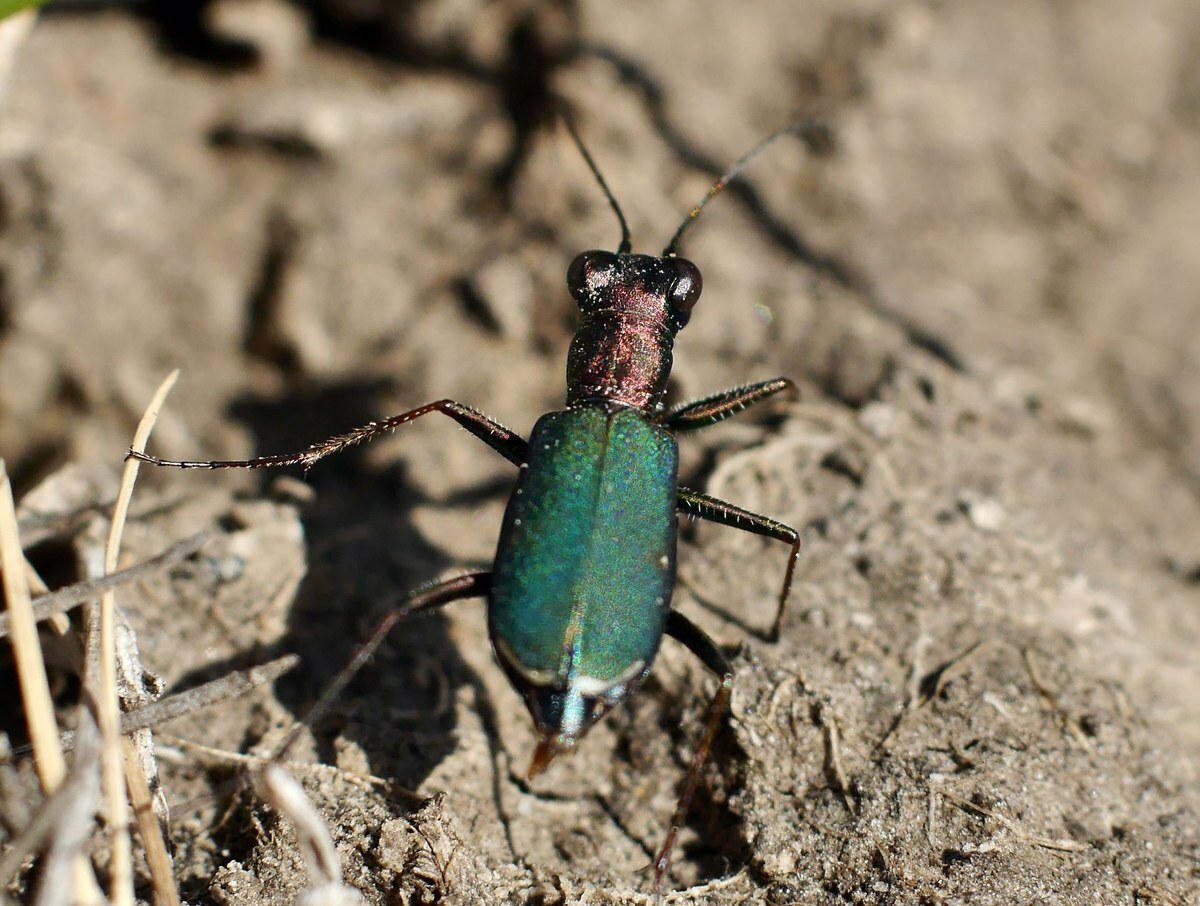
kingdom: Animalia
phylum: Arthropoda
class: Insecta
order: Coleoptera
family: Carabidae
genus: Cylindera
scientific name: Cylindera germanica
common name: Cliff tiger beetle
